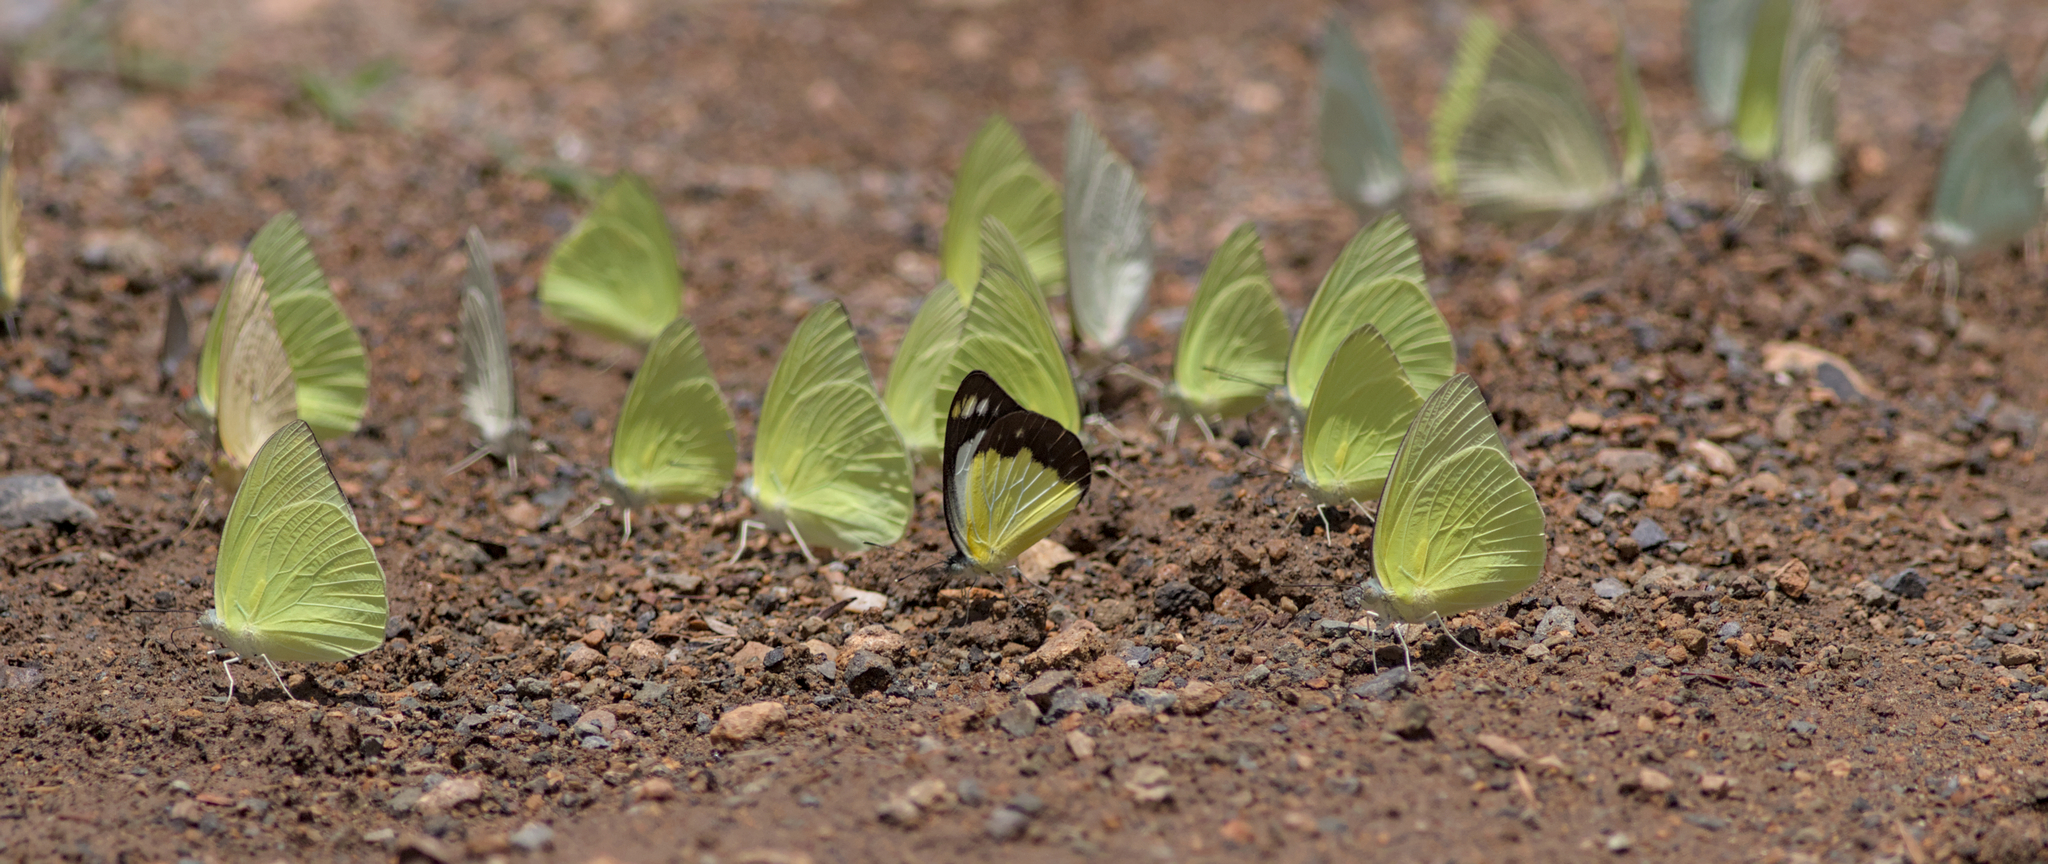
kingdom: Animalia
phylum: Arthropoda
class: Insecta
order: Lepidoptera
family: Pieridae
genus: Cepora
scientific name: Cepora perimale
